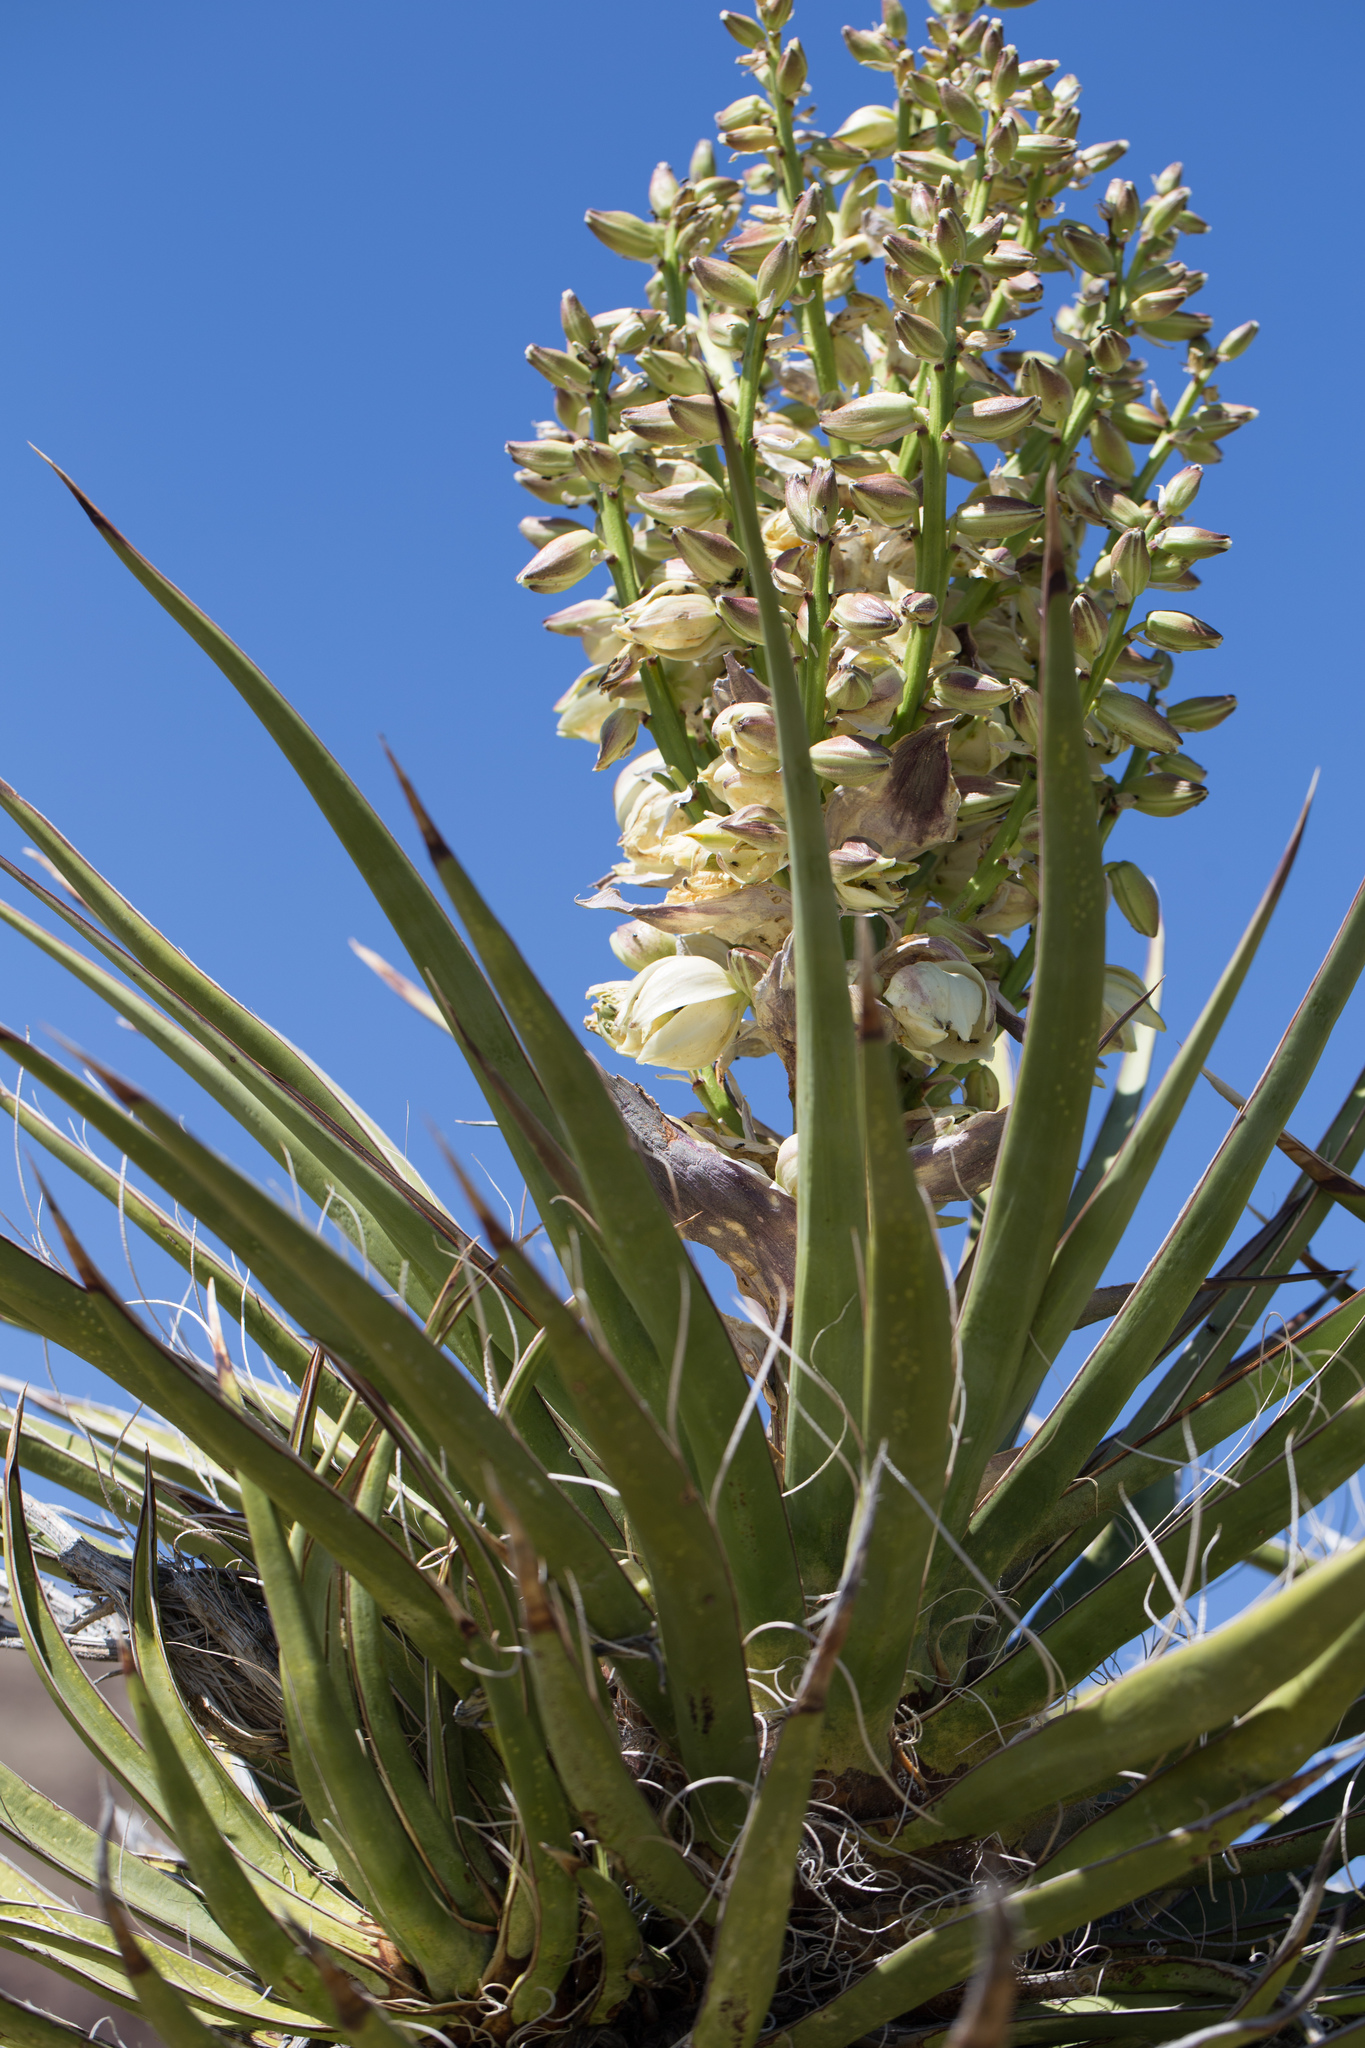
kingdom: Plantae
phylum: Tracheophyta
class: Liliopsida
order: Asparagales
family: Asparagaceae
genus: Yucca
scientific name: Yucca schidigera
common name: Mojave yucca
